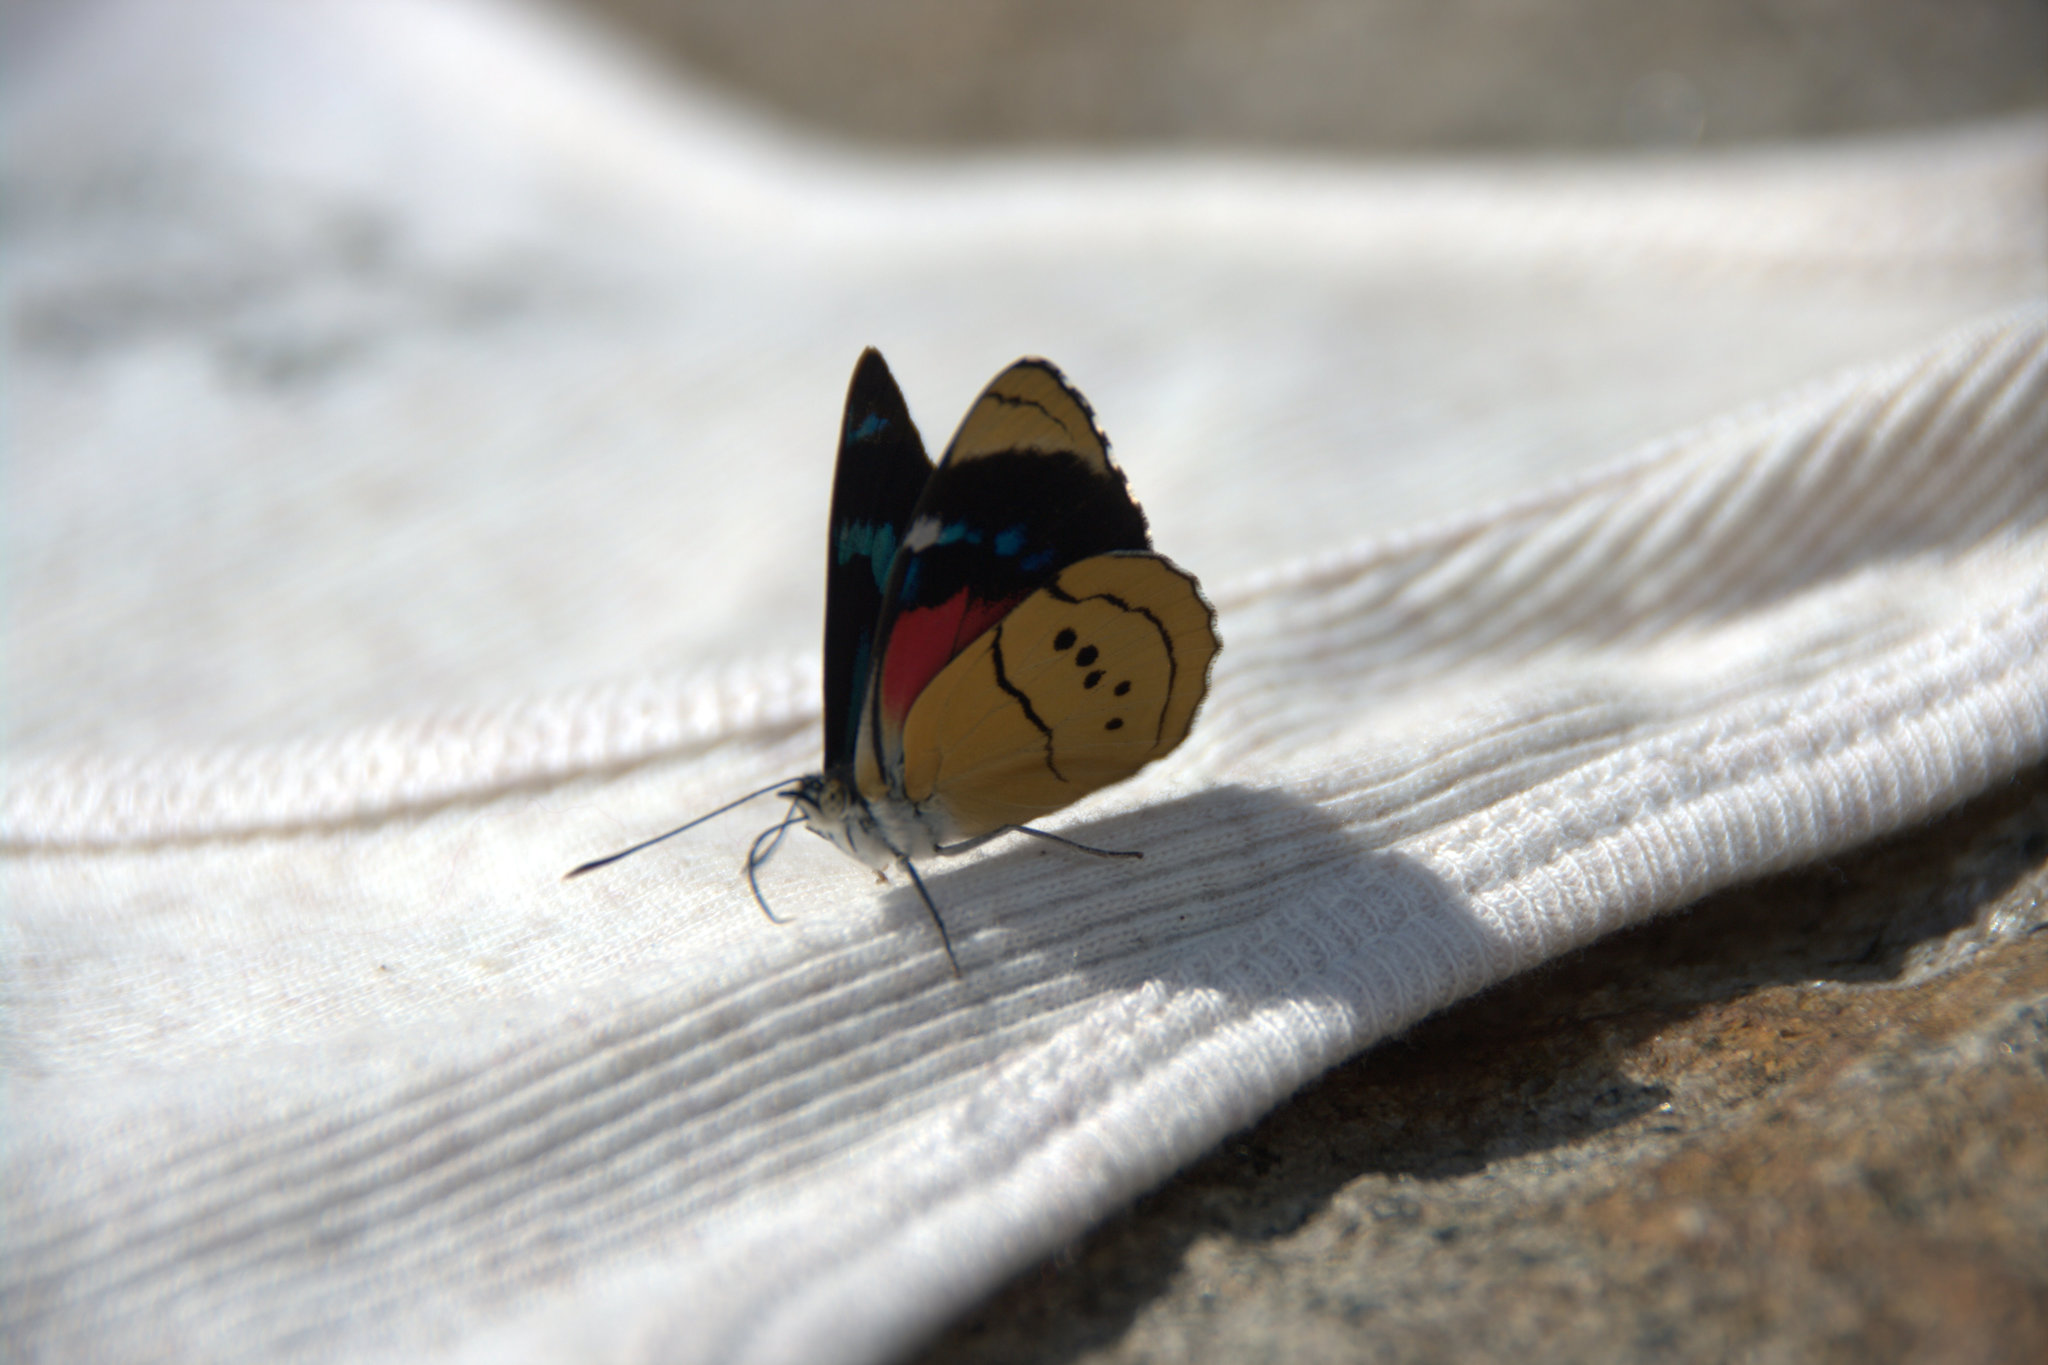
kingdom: Animalia
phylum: Arthropoda
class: Insecta
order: Lepidoptera
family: Nymphalidae
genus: Perisama
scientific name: Perisama humboldtii
